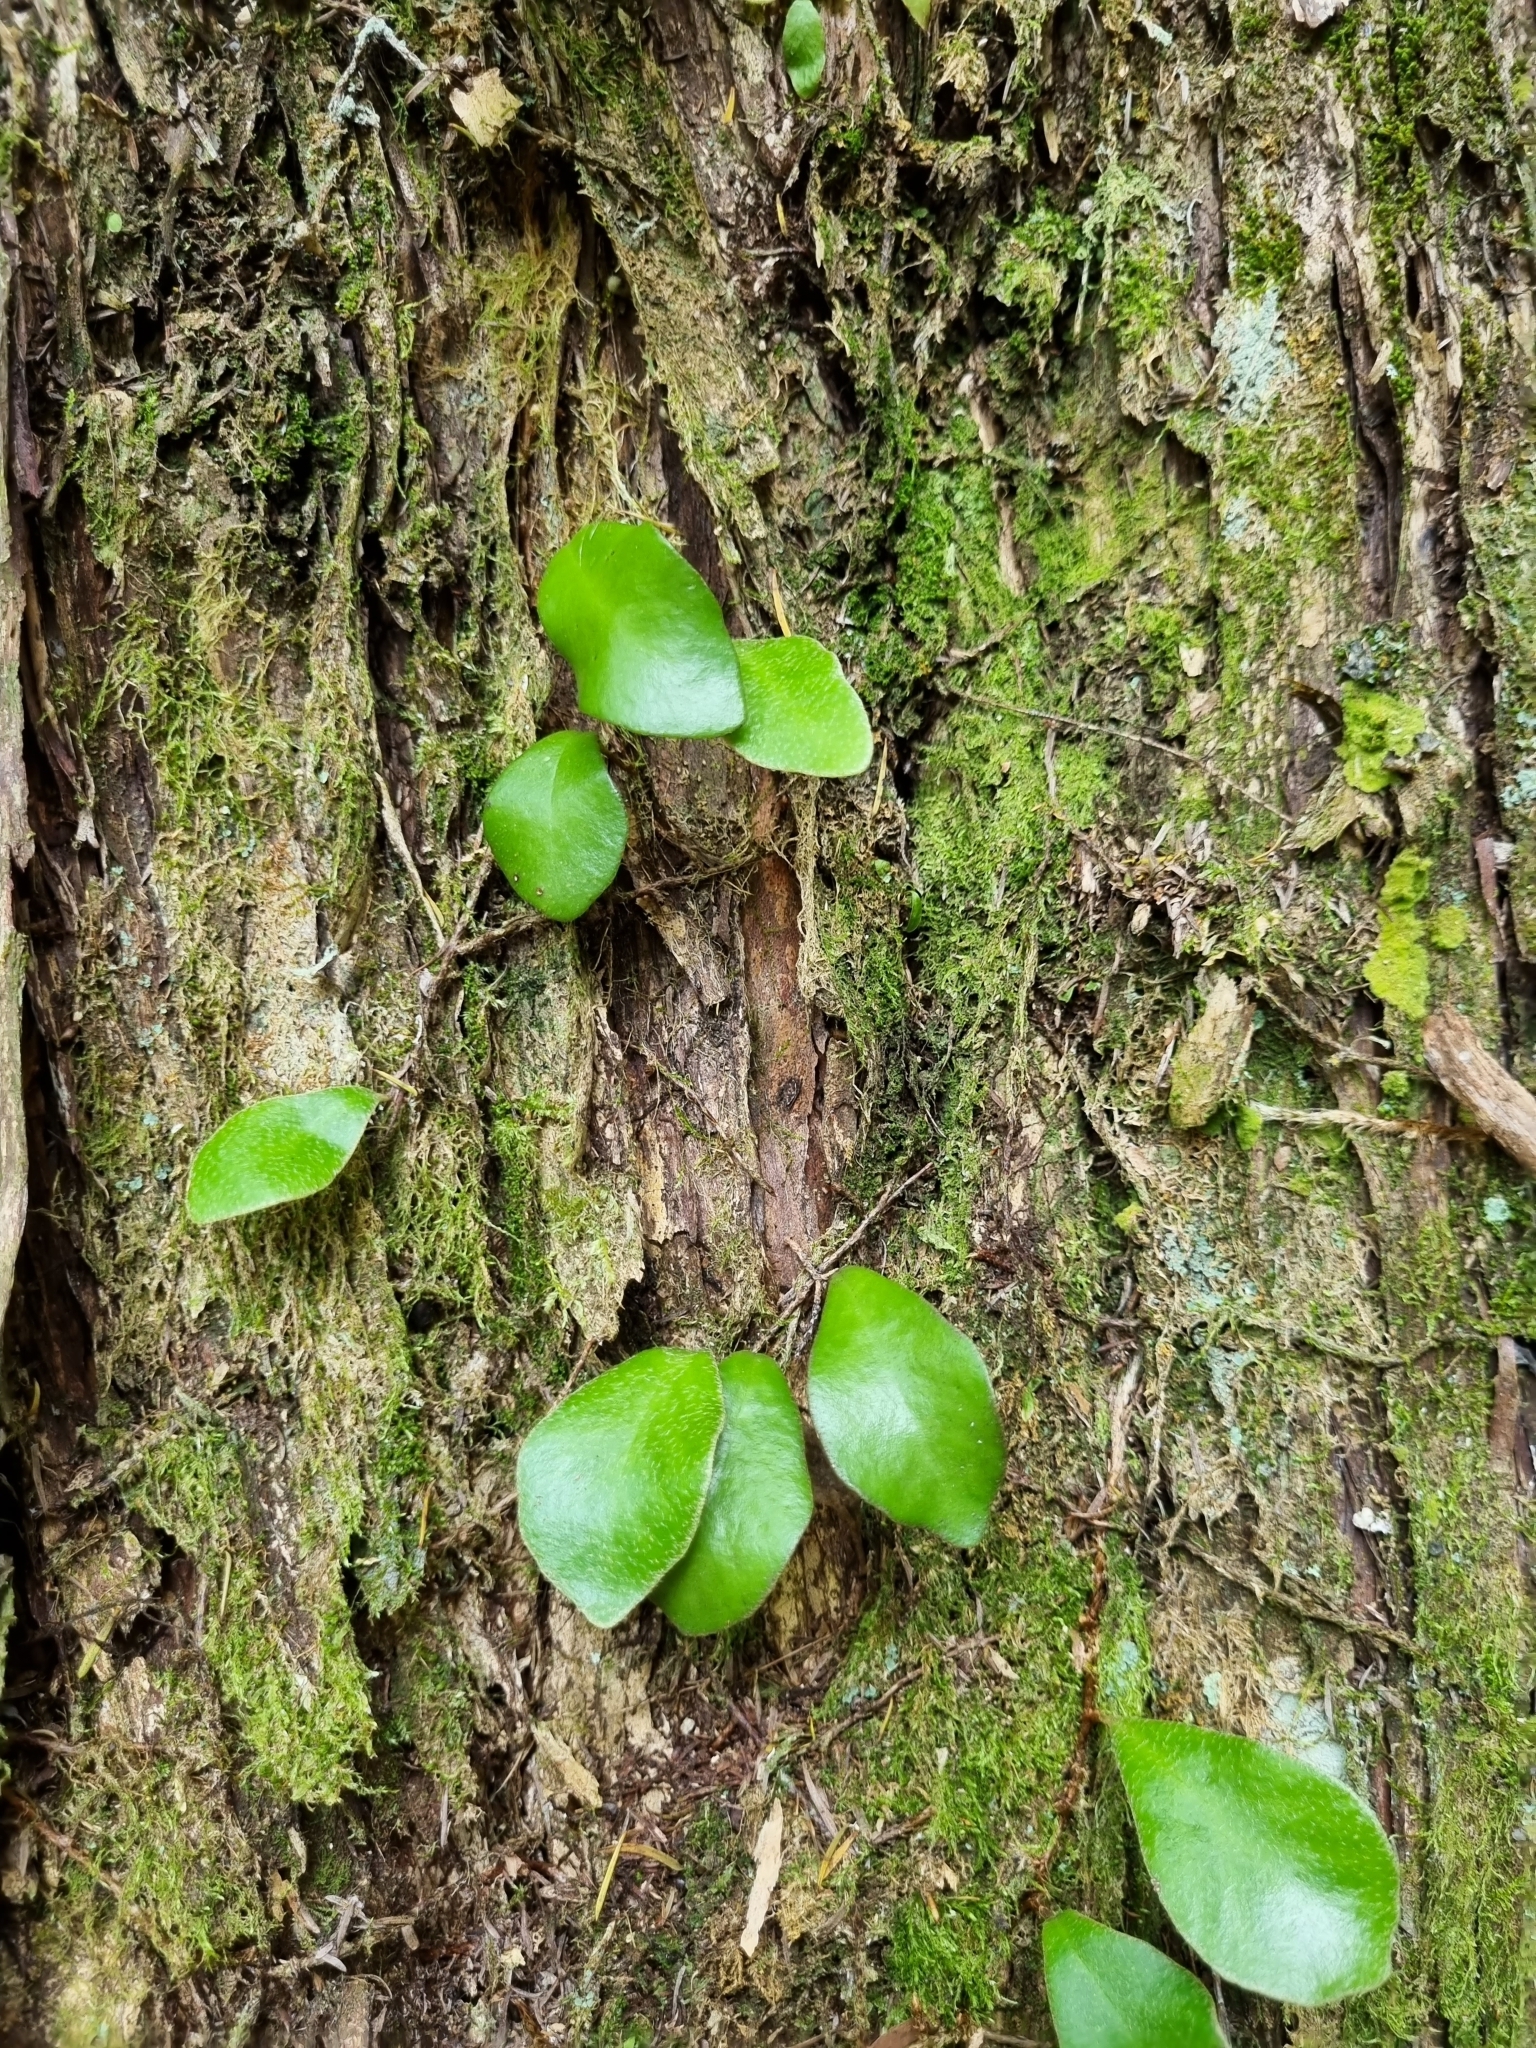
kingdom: Plantae
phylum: Tracheophyta
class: Polypodiopsida
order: Polypodiales
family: Polypodiaceae
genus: Pyrrosia
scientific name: Pyrrosia eleagnifolia
